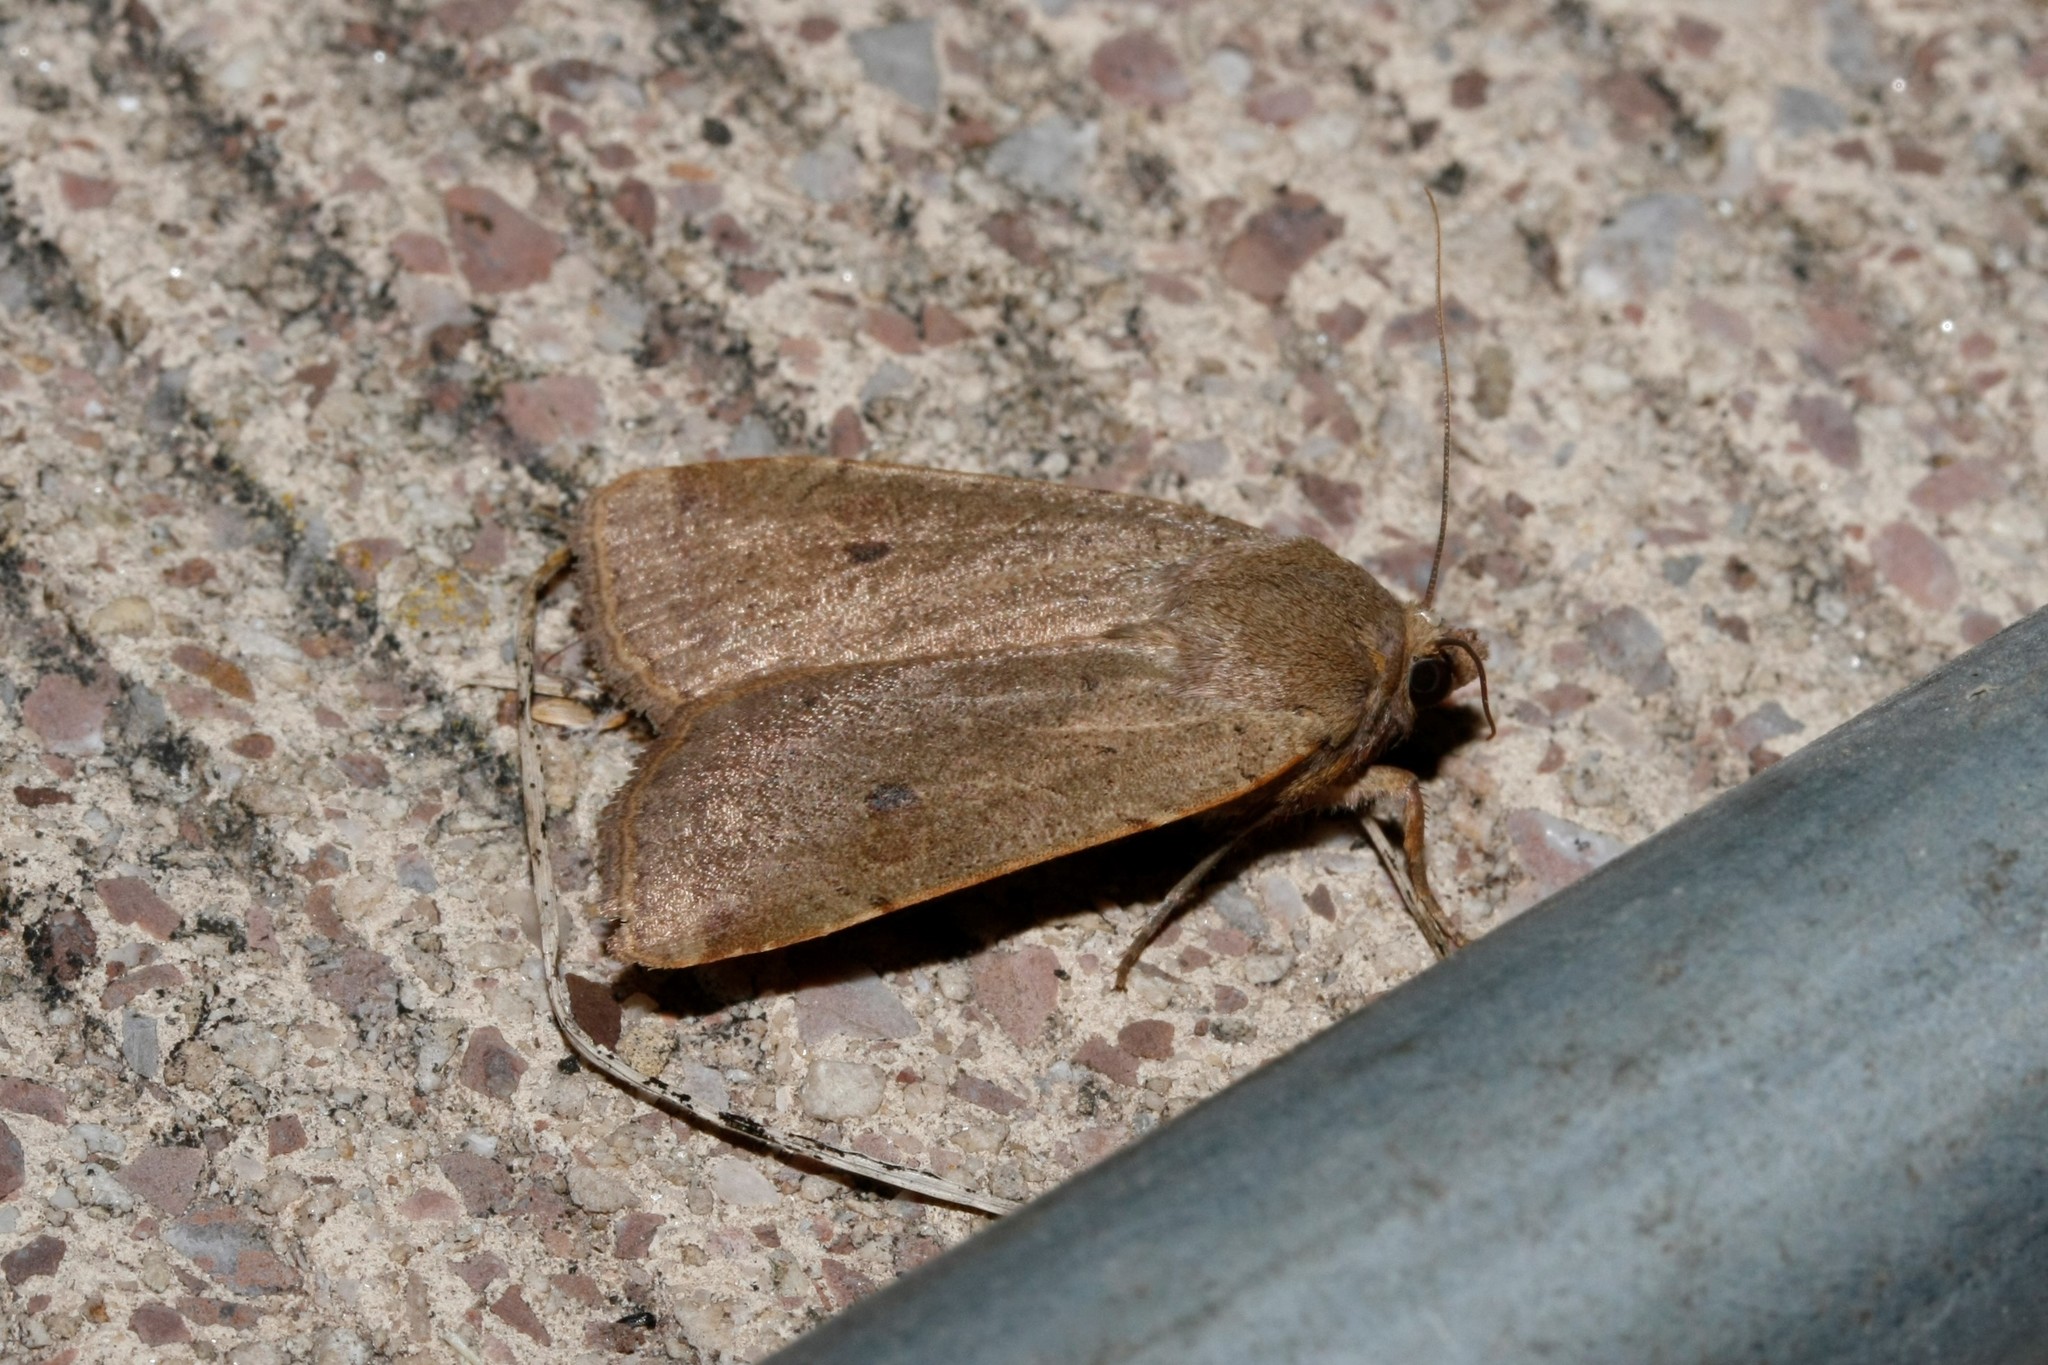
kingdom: Animalia
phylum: Arthropoda
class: Insecta
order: Lepidoptera
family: Noctuidae
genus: Noctua
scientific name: Noctua comes
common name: Lesser yellow underwing
